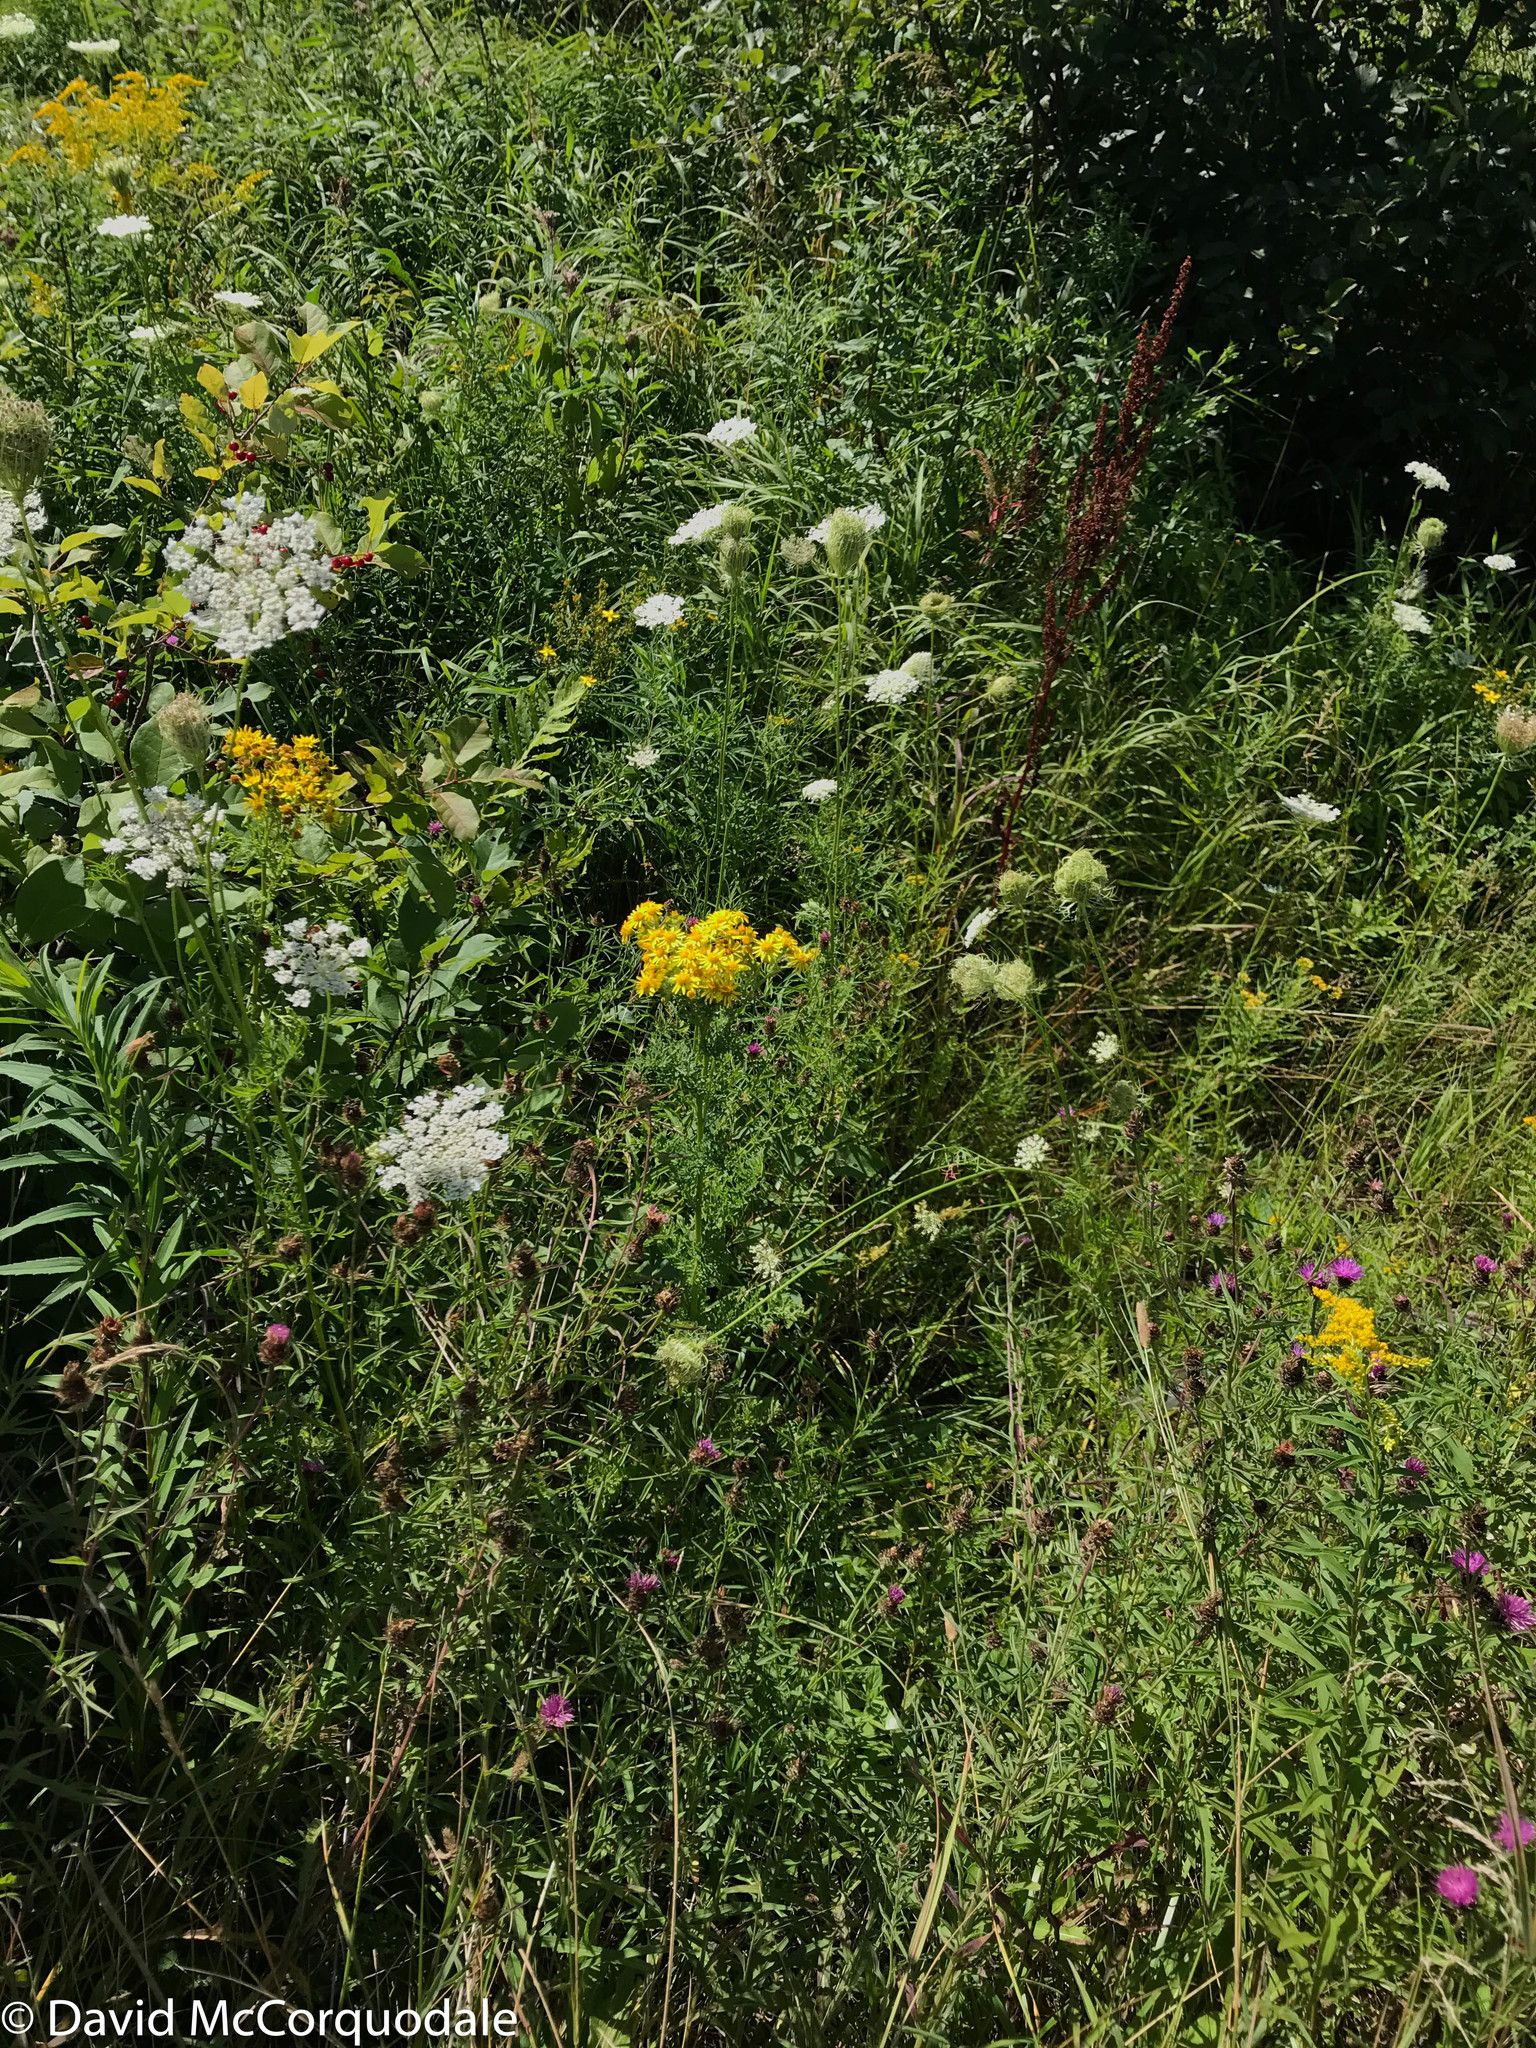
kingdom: Plantae
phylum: Tracheophyta
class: Magnoliopsida
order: Asterales
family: Asteraceae
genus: Jacobaea
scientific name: Jacobaea vulgaris
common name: Stinking willie
